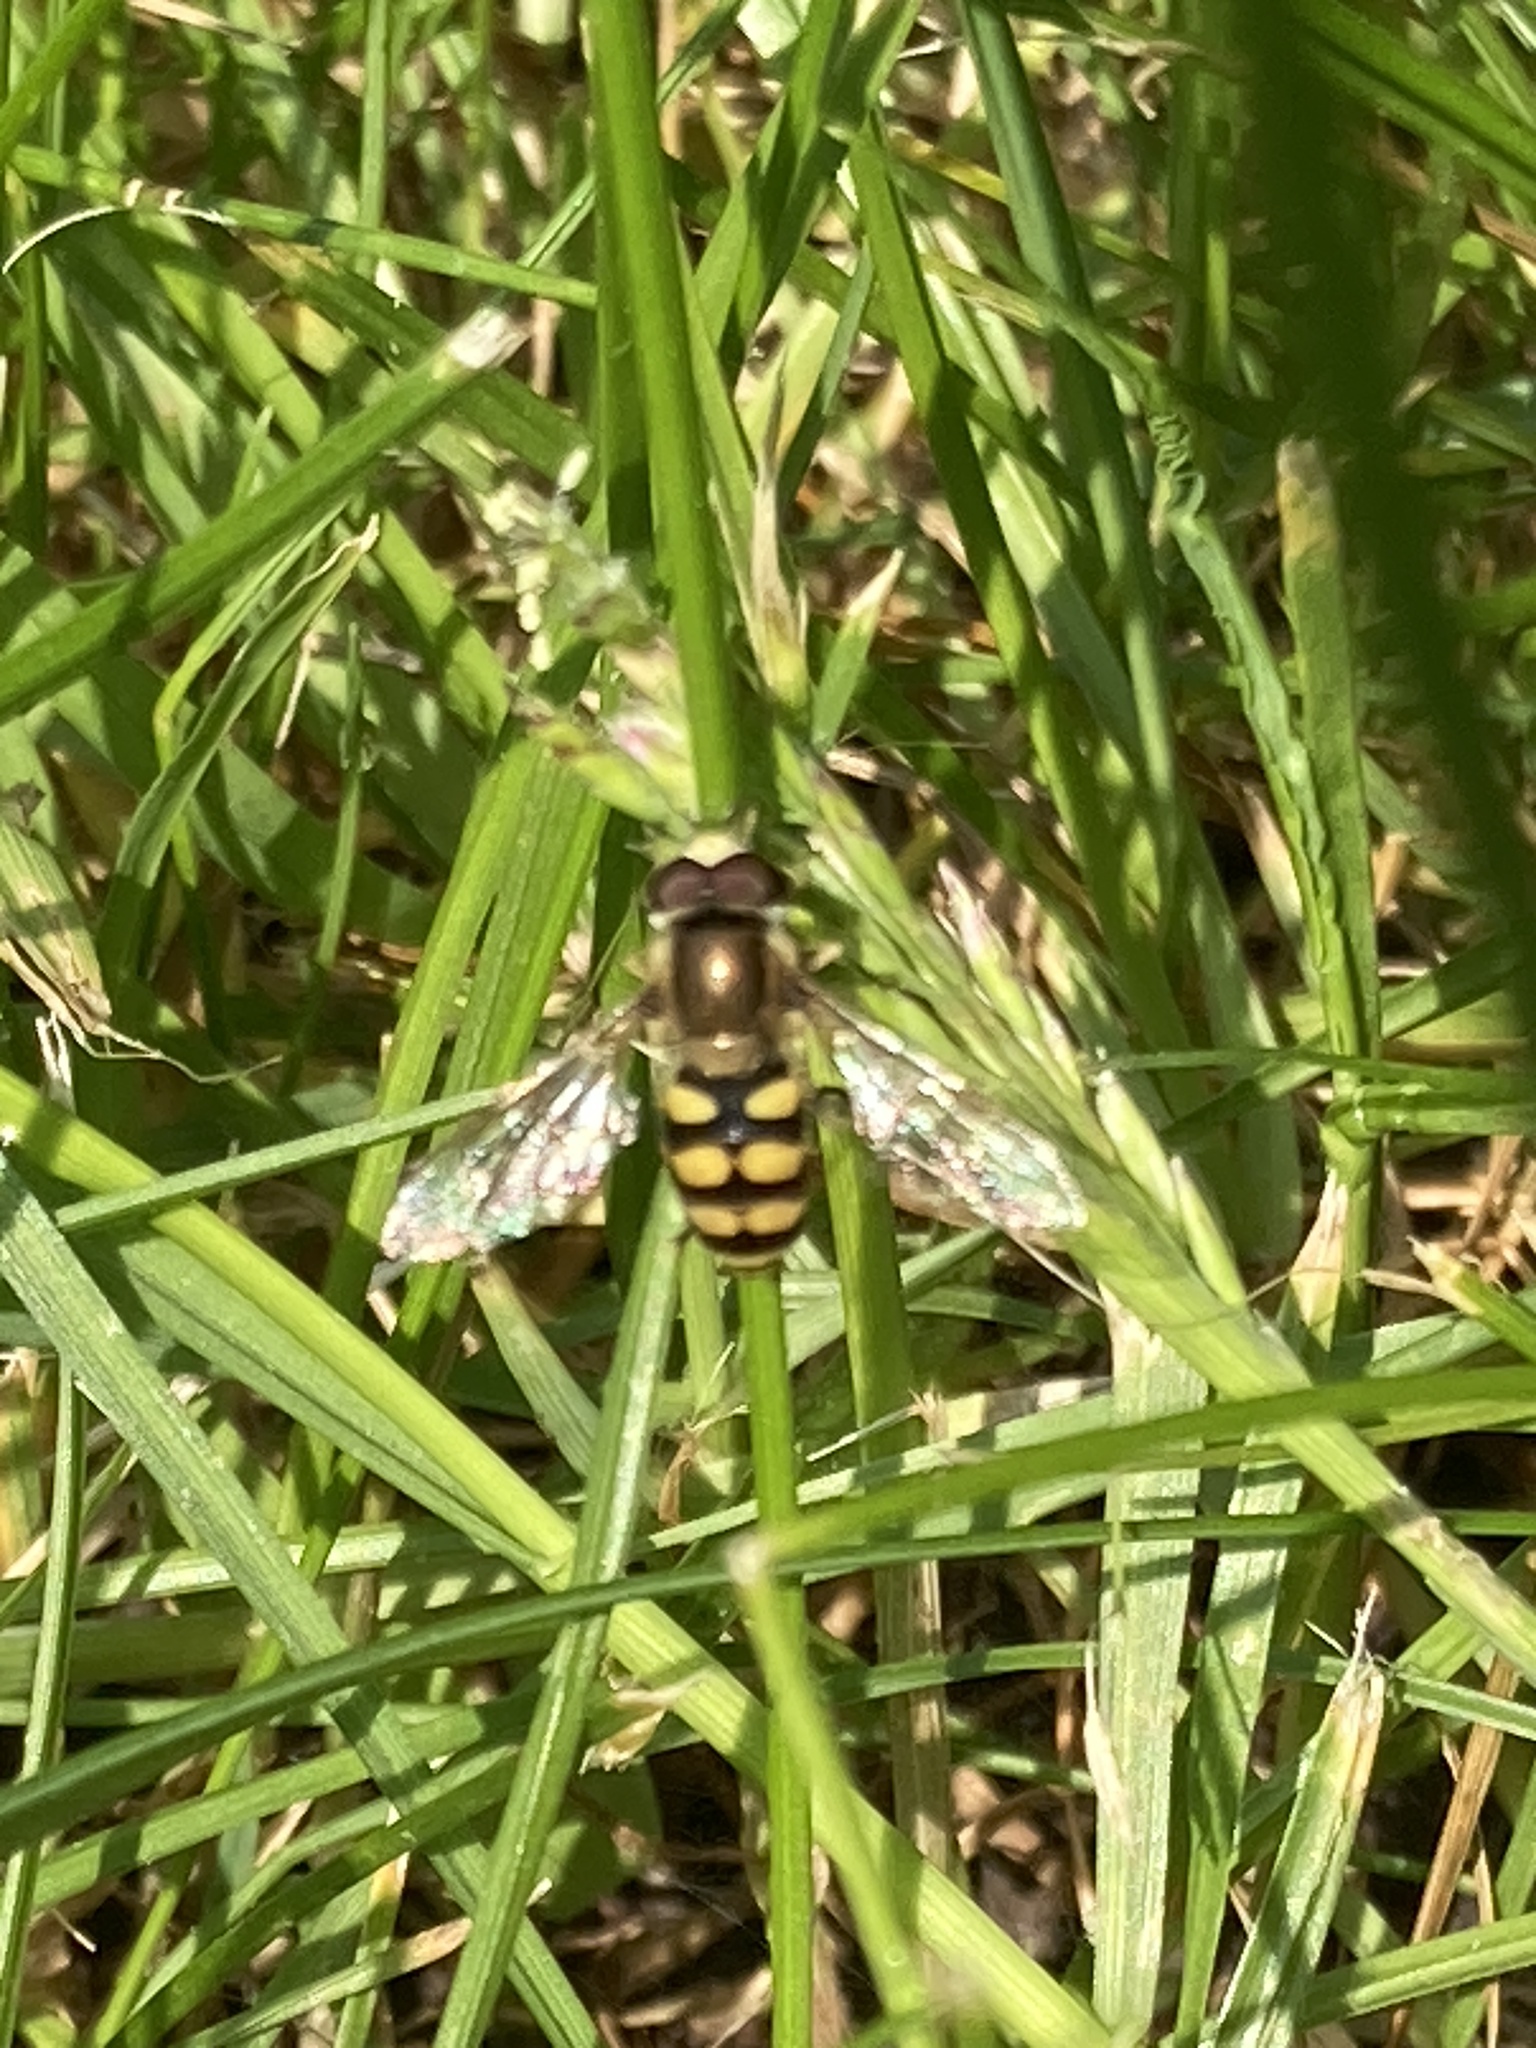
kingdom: Animalia
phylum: Arthropoda
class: Insecta
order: Diptera
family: Syrphidae
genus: Eupeodes
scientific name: Eupeodes corollae
